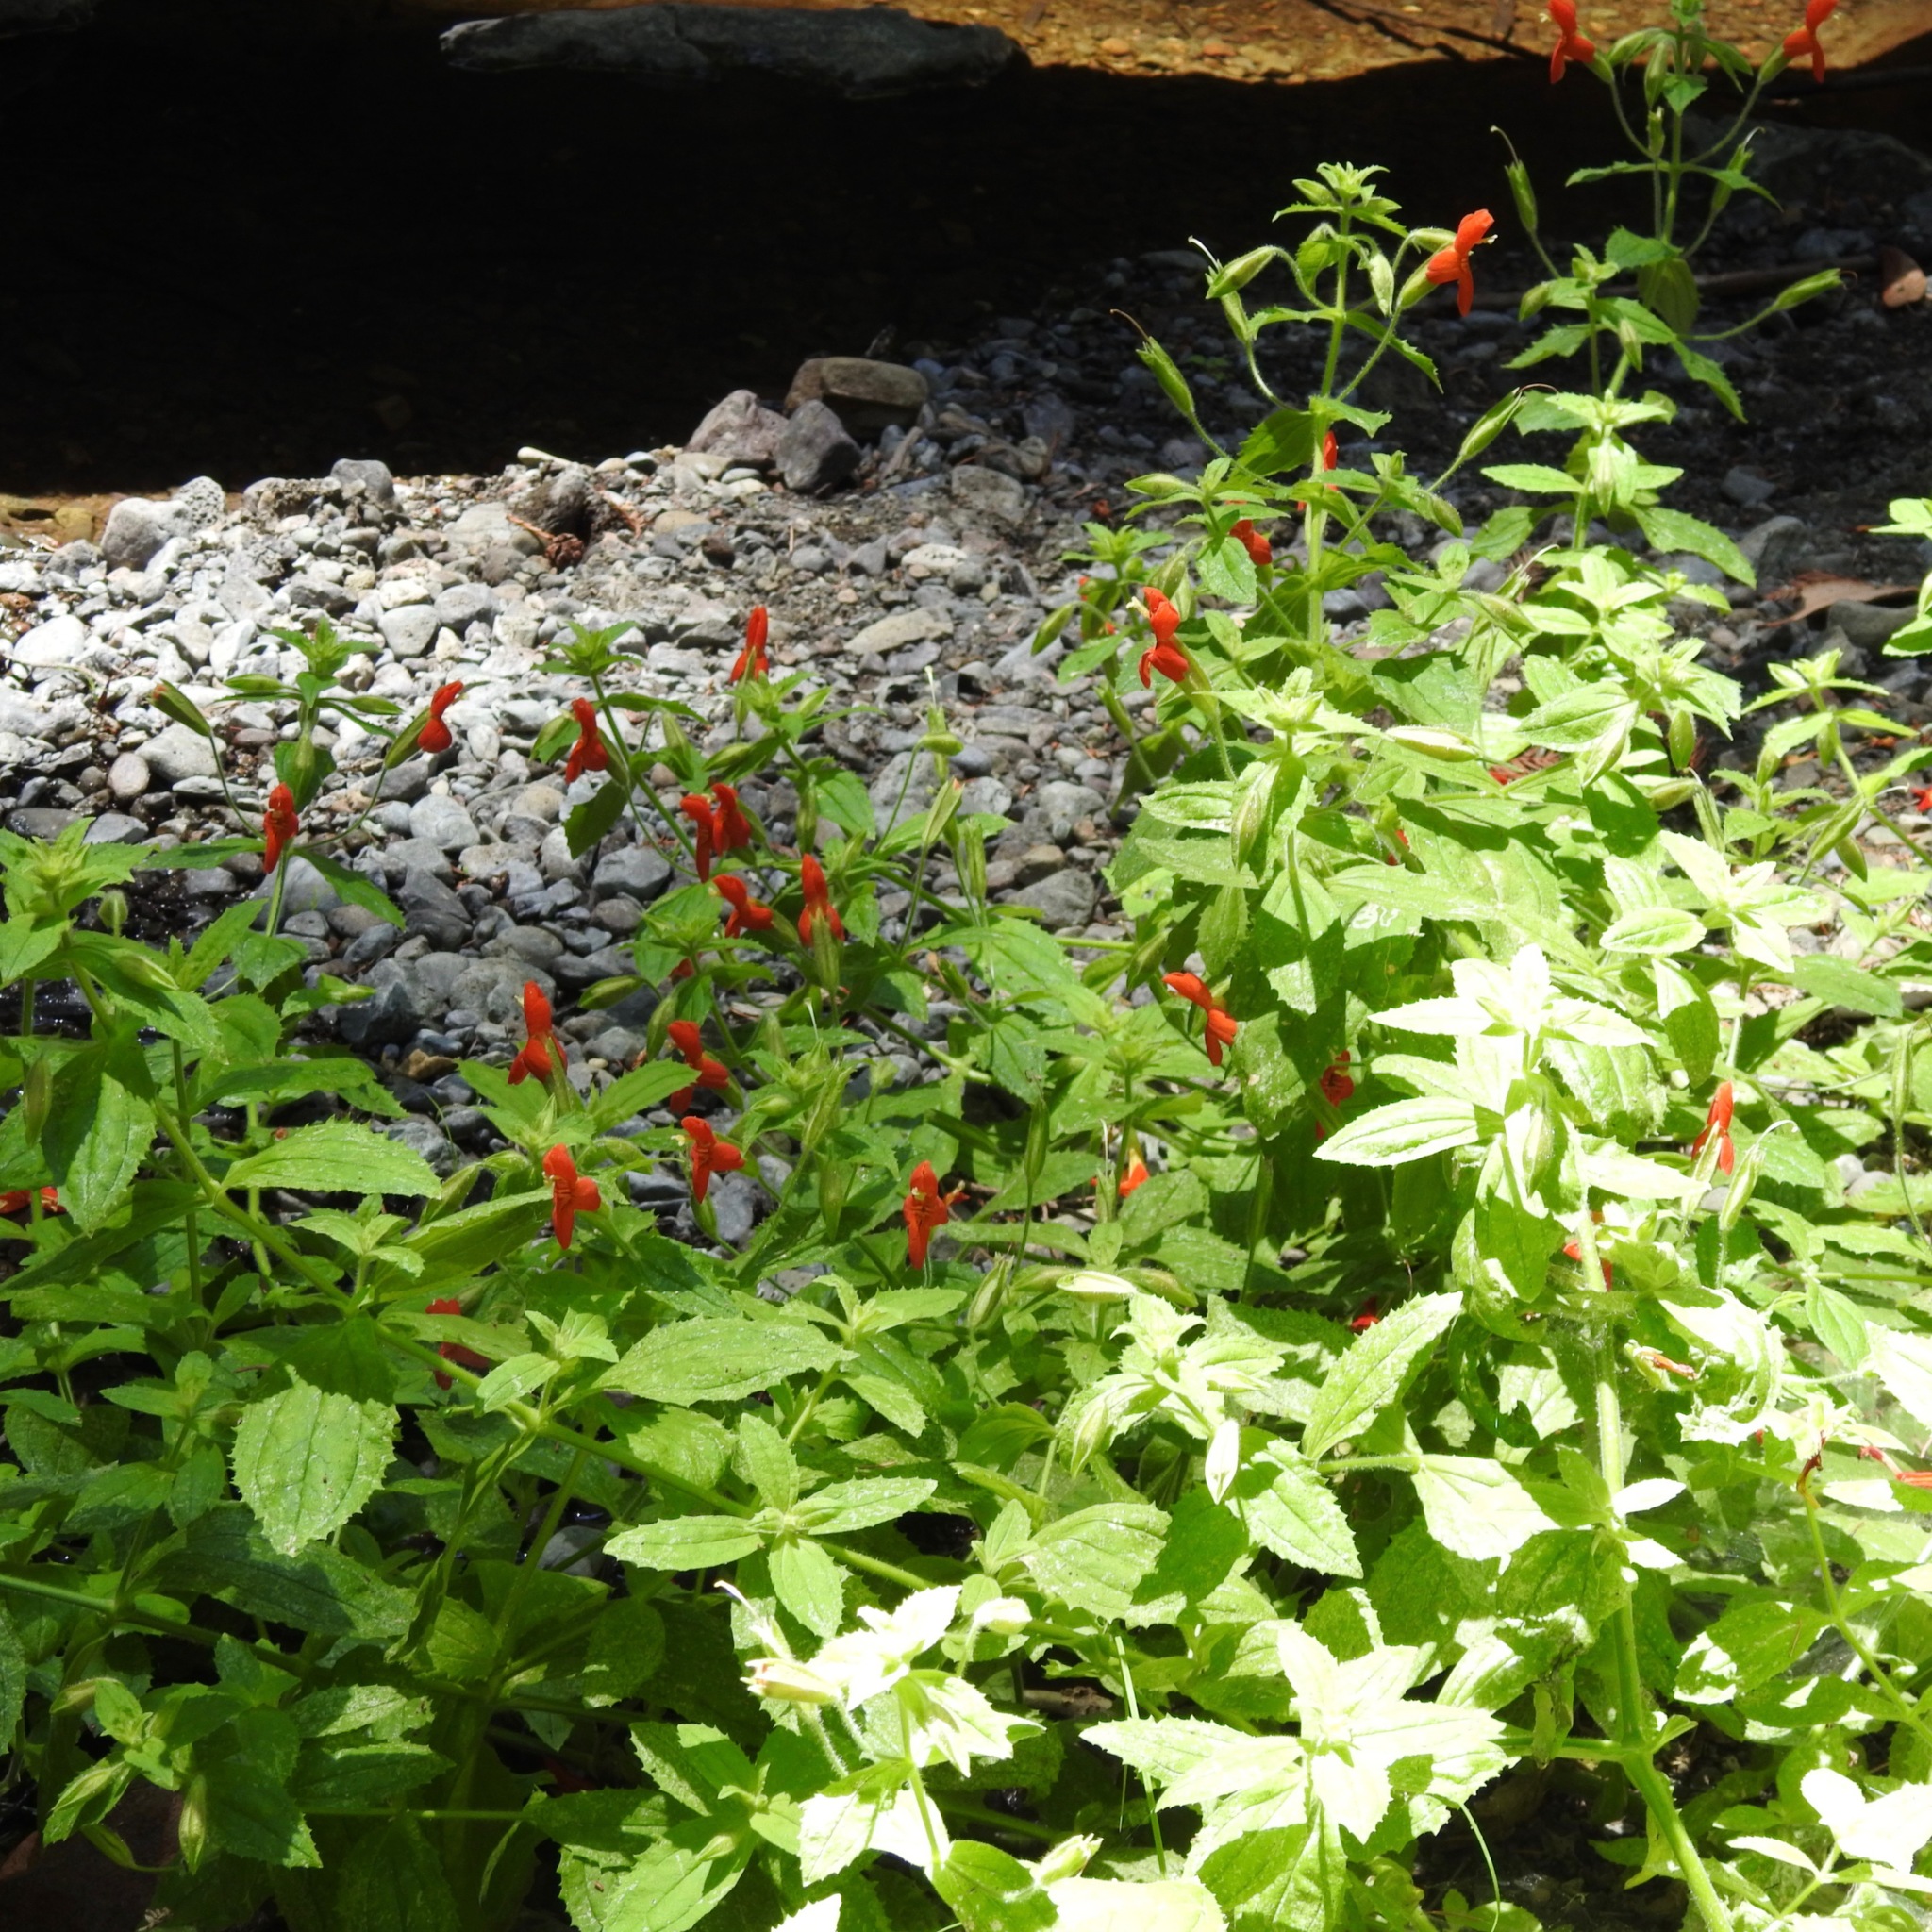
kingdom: Plantae
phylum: Tracheophyta
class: Magnoliopsida
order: Lamiales
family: Phrymaceae
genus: Erythranthe
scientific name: Erythranthe cardinalis
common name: Scarlet monkey-flower
